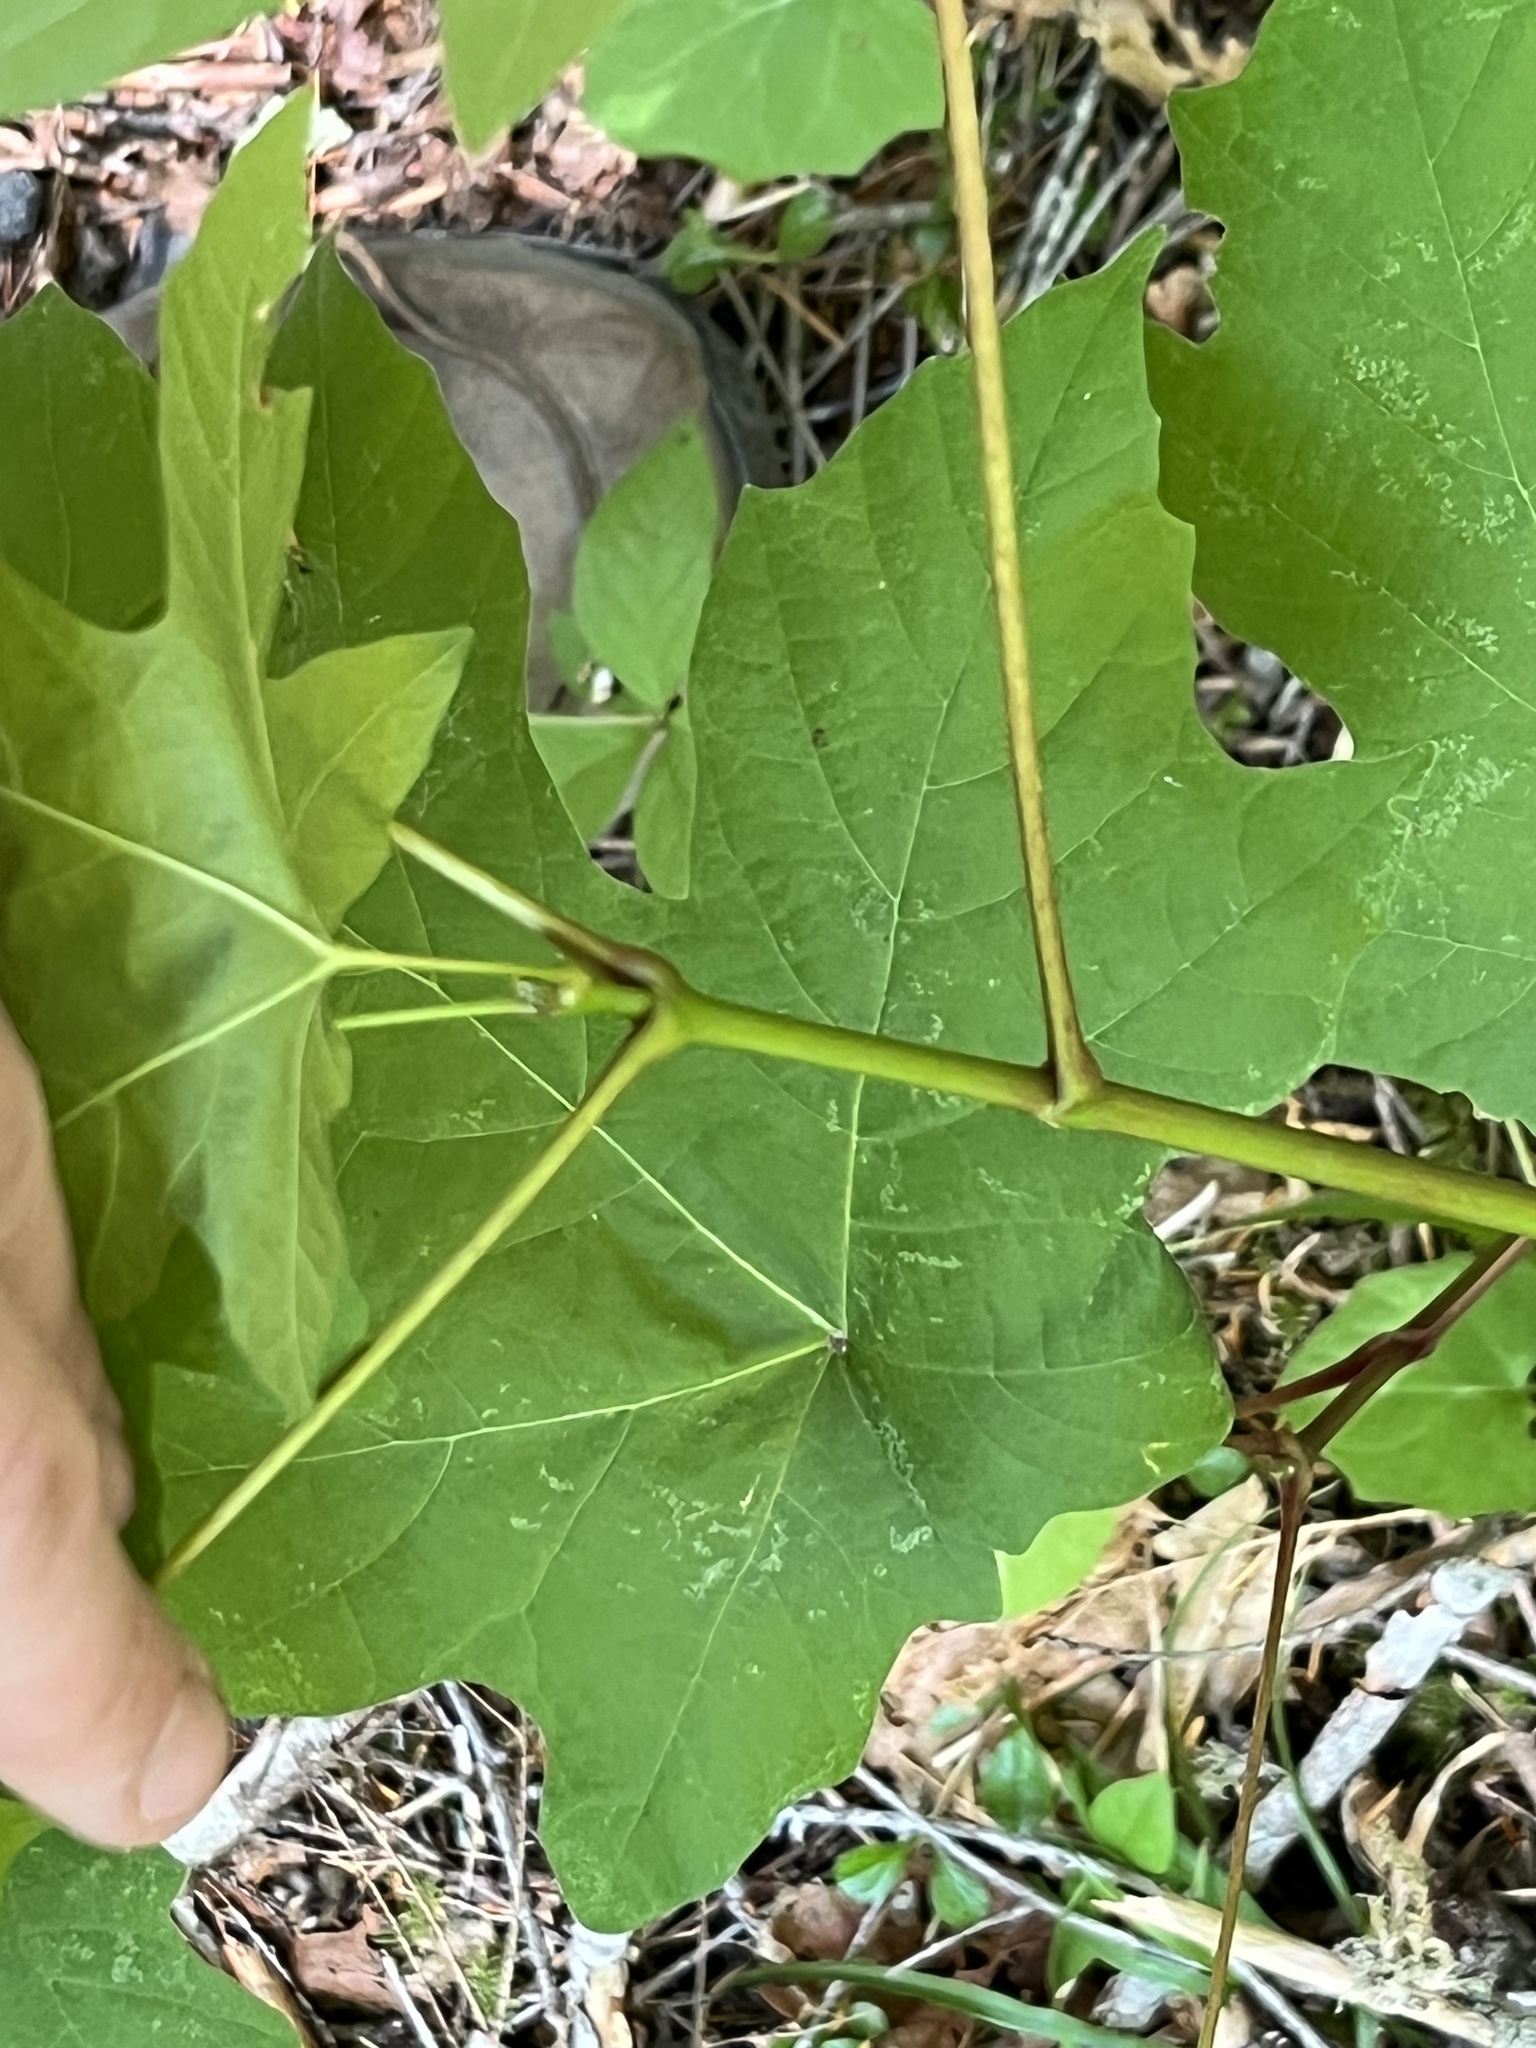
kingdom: Plantae
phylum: Tracheophyta
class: Magnoliopsida
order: Sapindales
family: Sapindaceae
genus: Acer
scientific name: Acer macrophyllum
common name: Oregon maple
